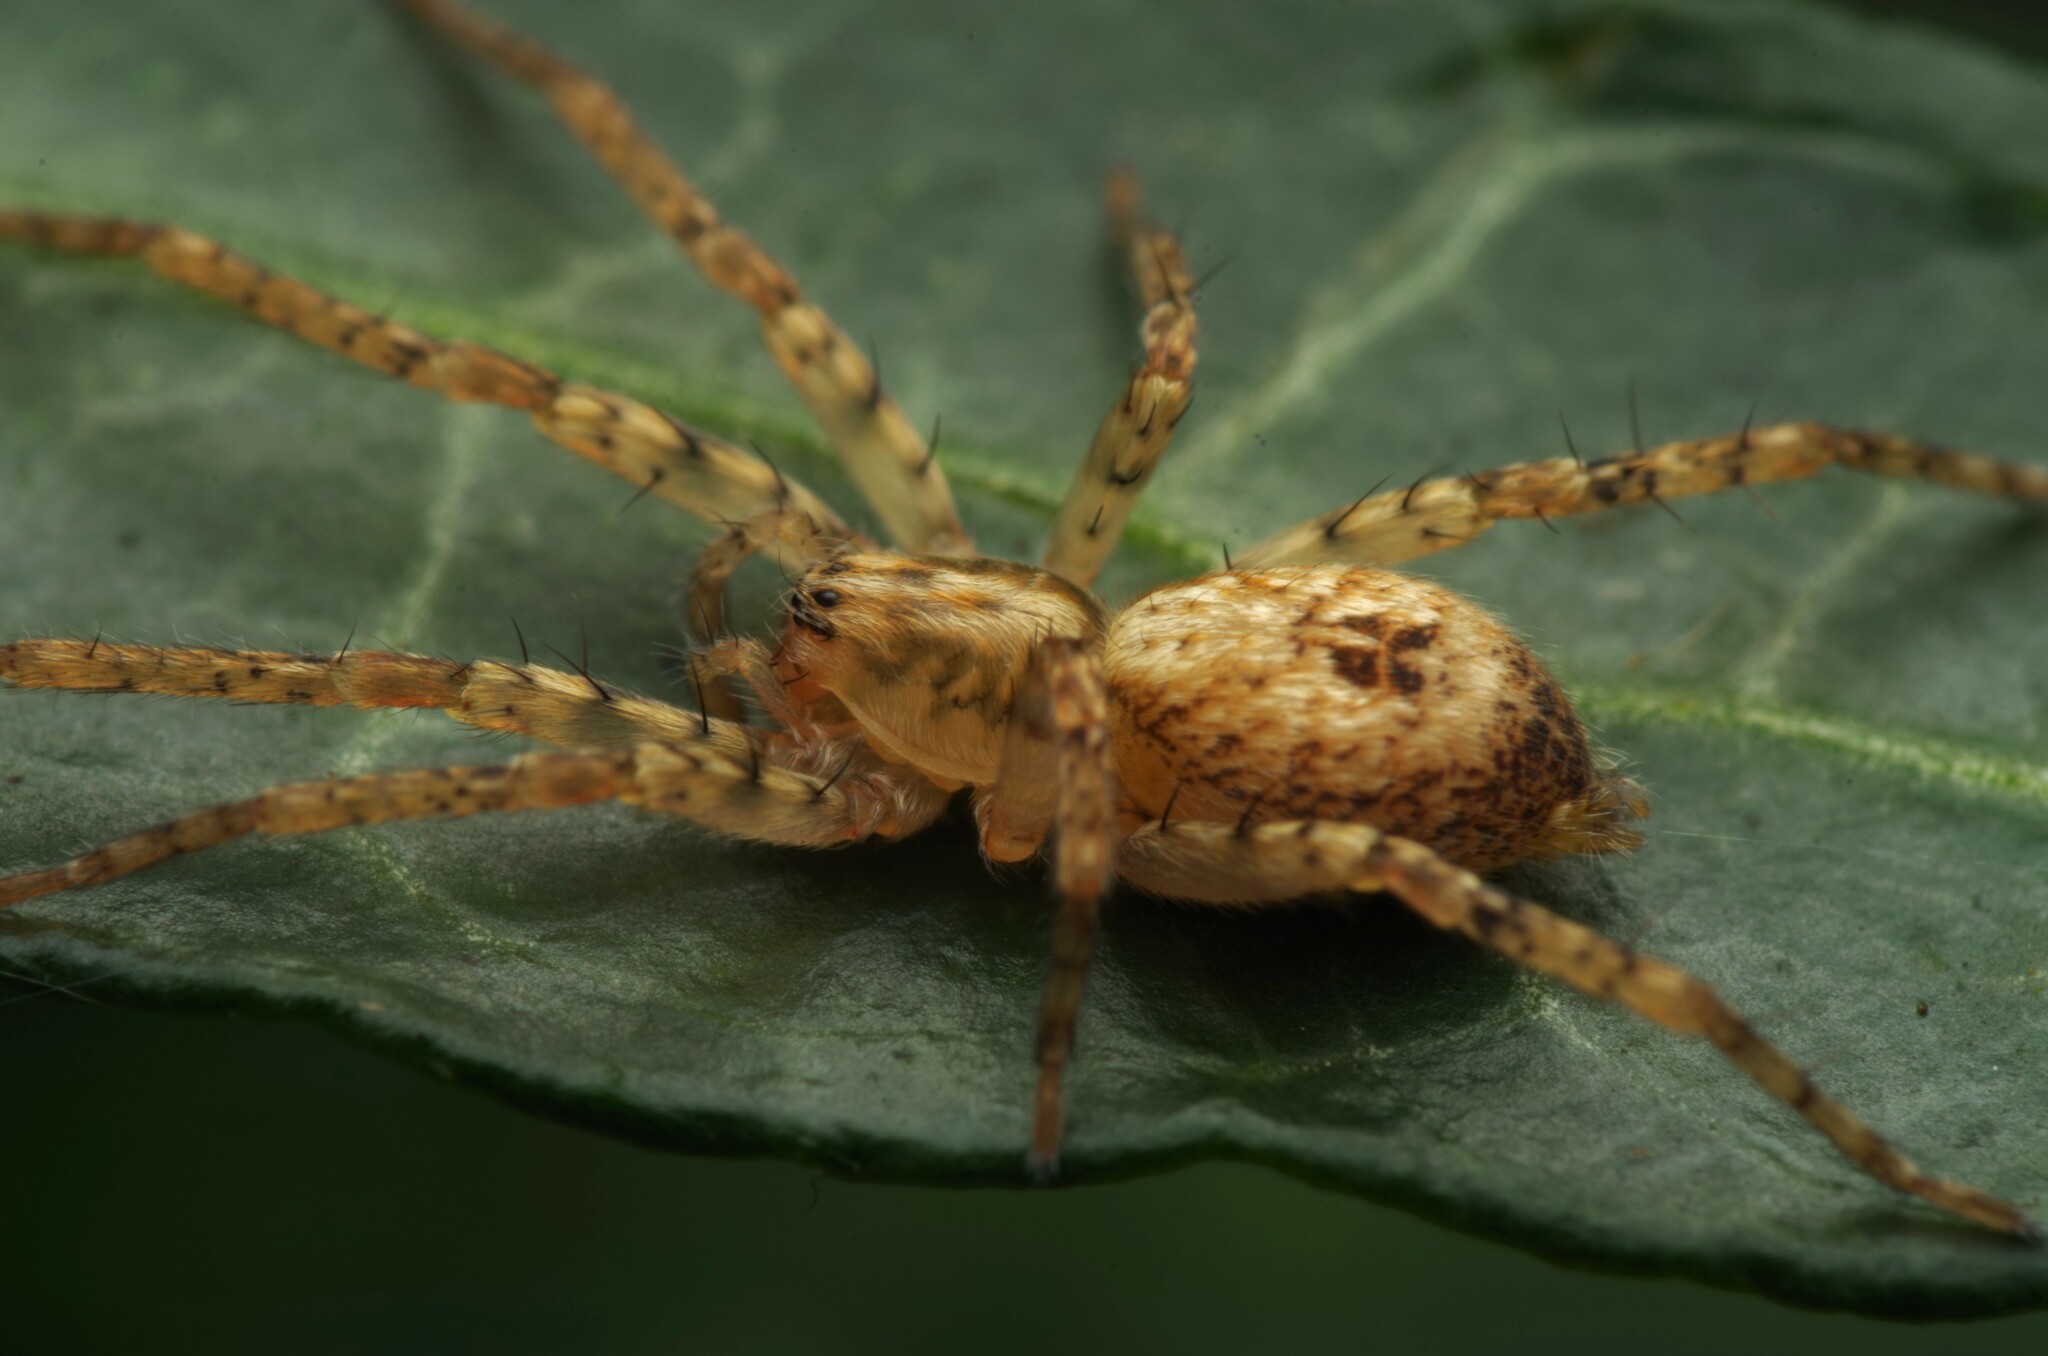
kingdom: Animalia
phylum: Arthropoda
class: Arachnida
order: Araneae
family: Anyphaenidae
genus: Anyphaena
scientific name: Anyphaena accentuata
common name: Buzzing spider
